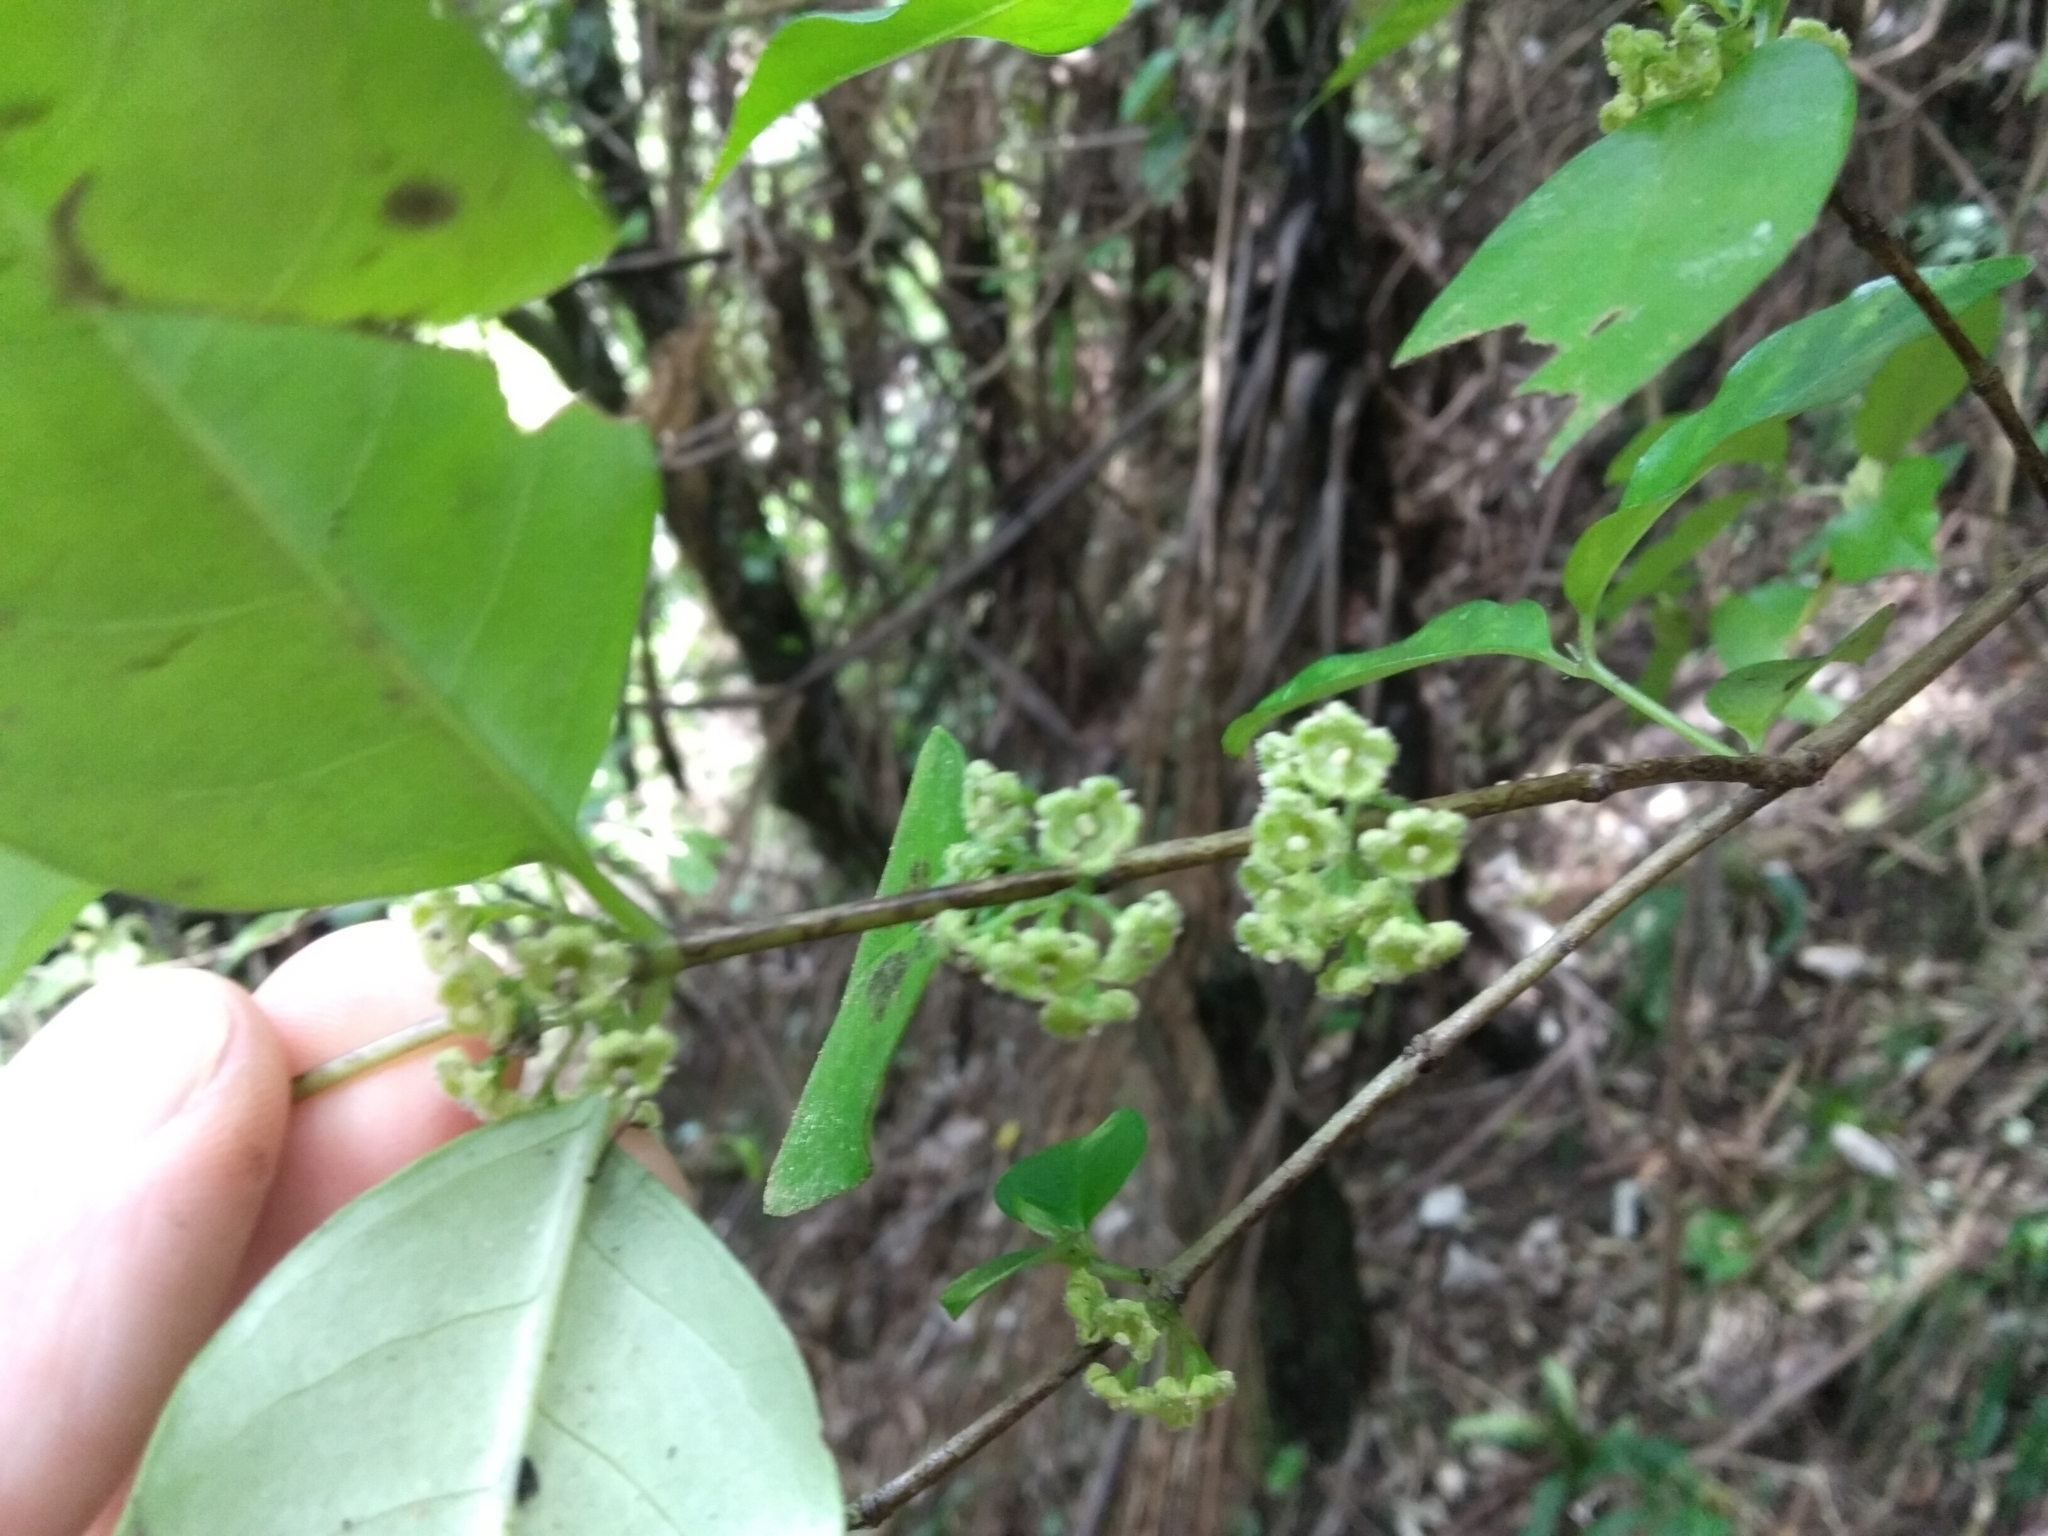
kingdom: Plantae
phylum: Tracheophyta
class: Magnoliopsida
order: Gentianales
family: Loganiaceae
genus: Geniostoma
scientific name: Geniostoma ligustrifolium
